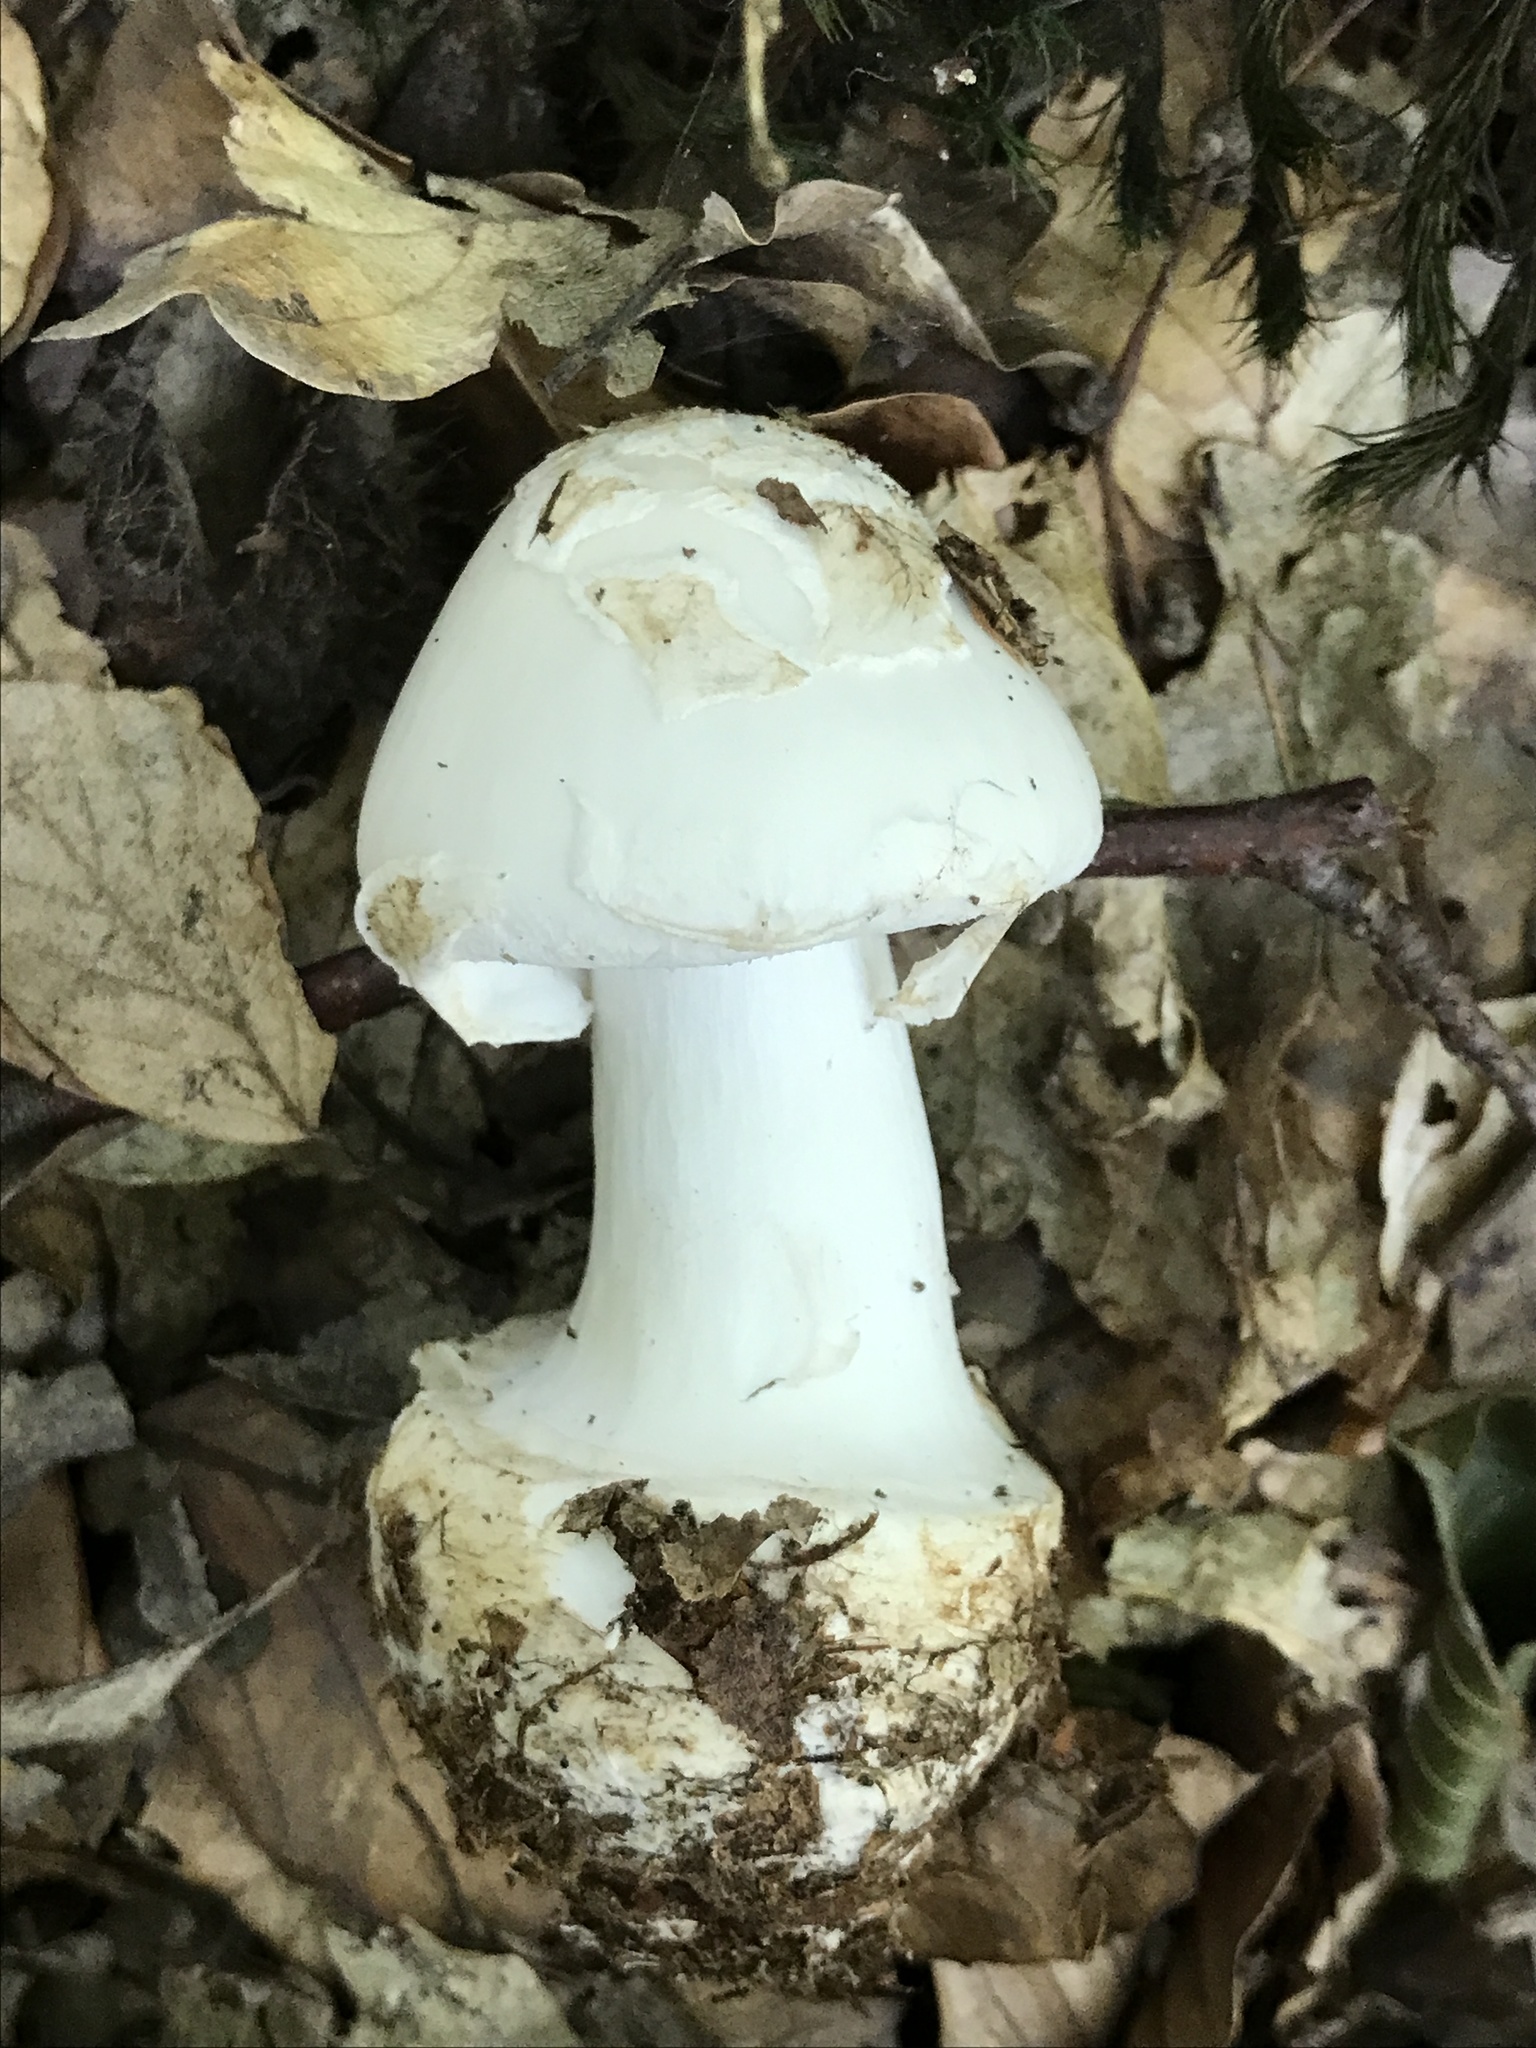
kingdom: Fungi
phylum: Basidiomycota
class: Agaricomycetes
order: Agaricales
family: Amanitaceae
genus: Amanita
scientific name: Amanita citrina
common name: False death-cap
